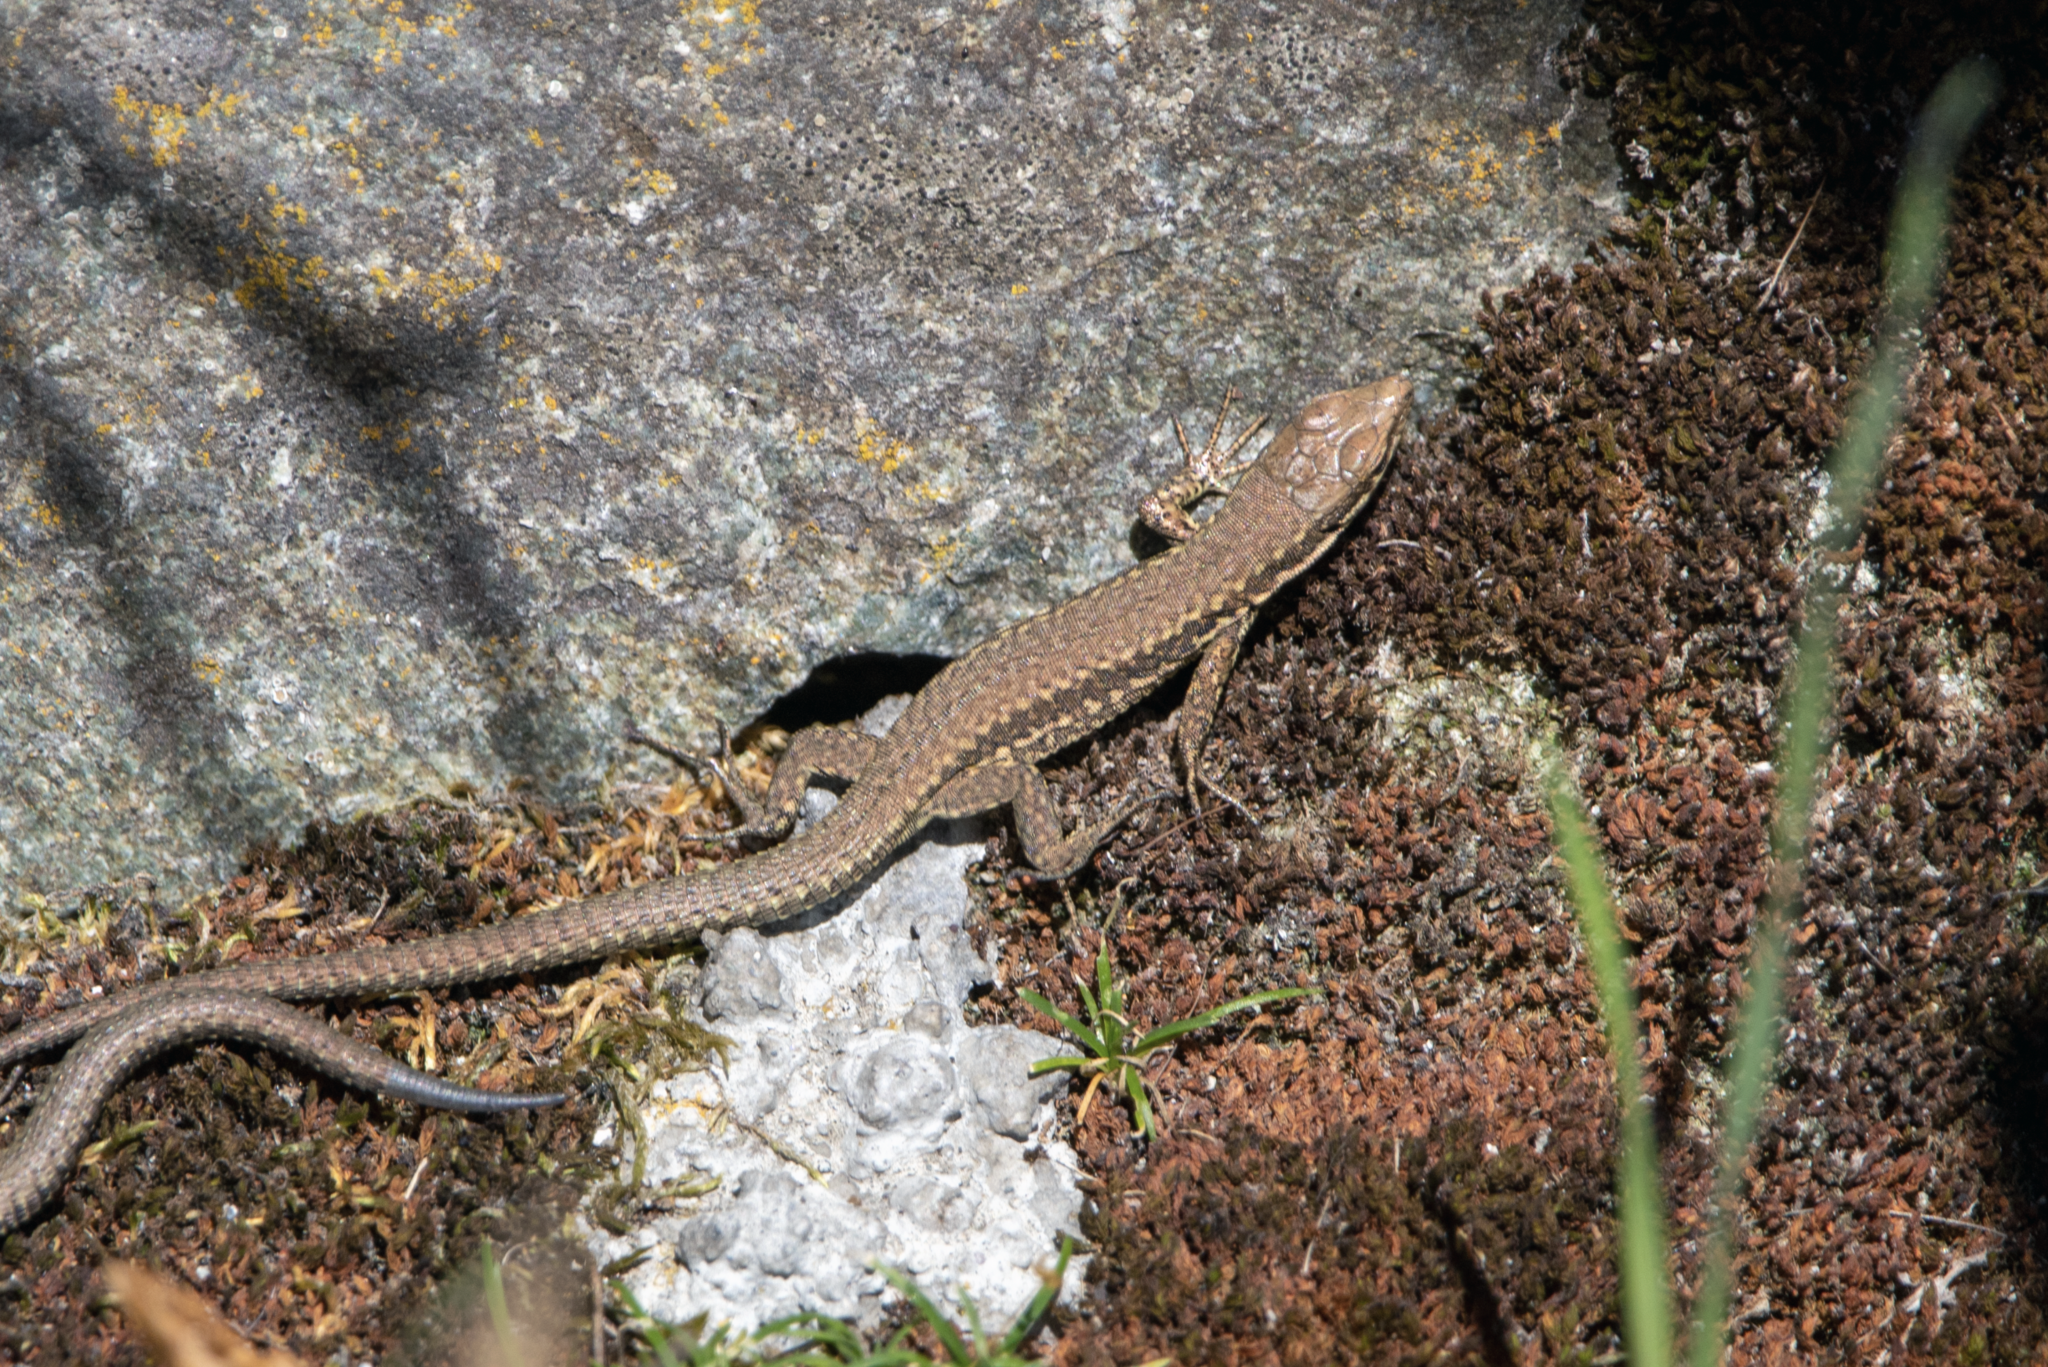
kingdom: Animalia
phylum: Chordata
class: Squamata
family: Lacertidae
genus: Podarcis
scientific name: Podarcis muralis
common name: Common wall lizard
